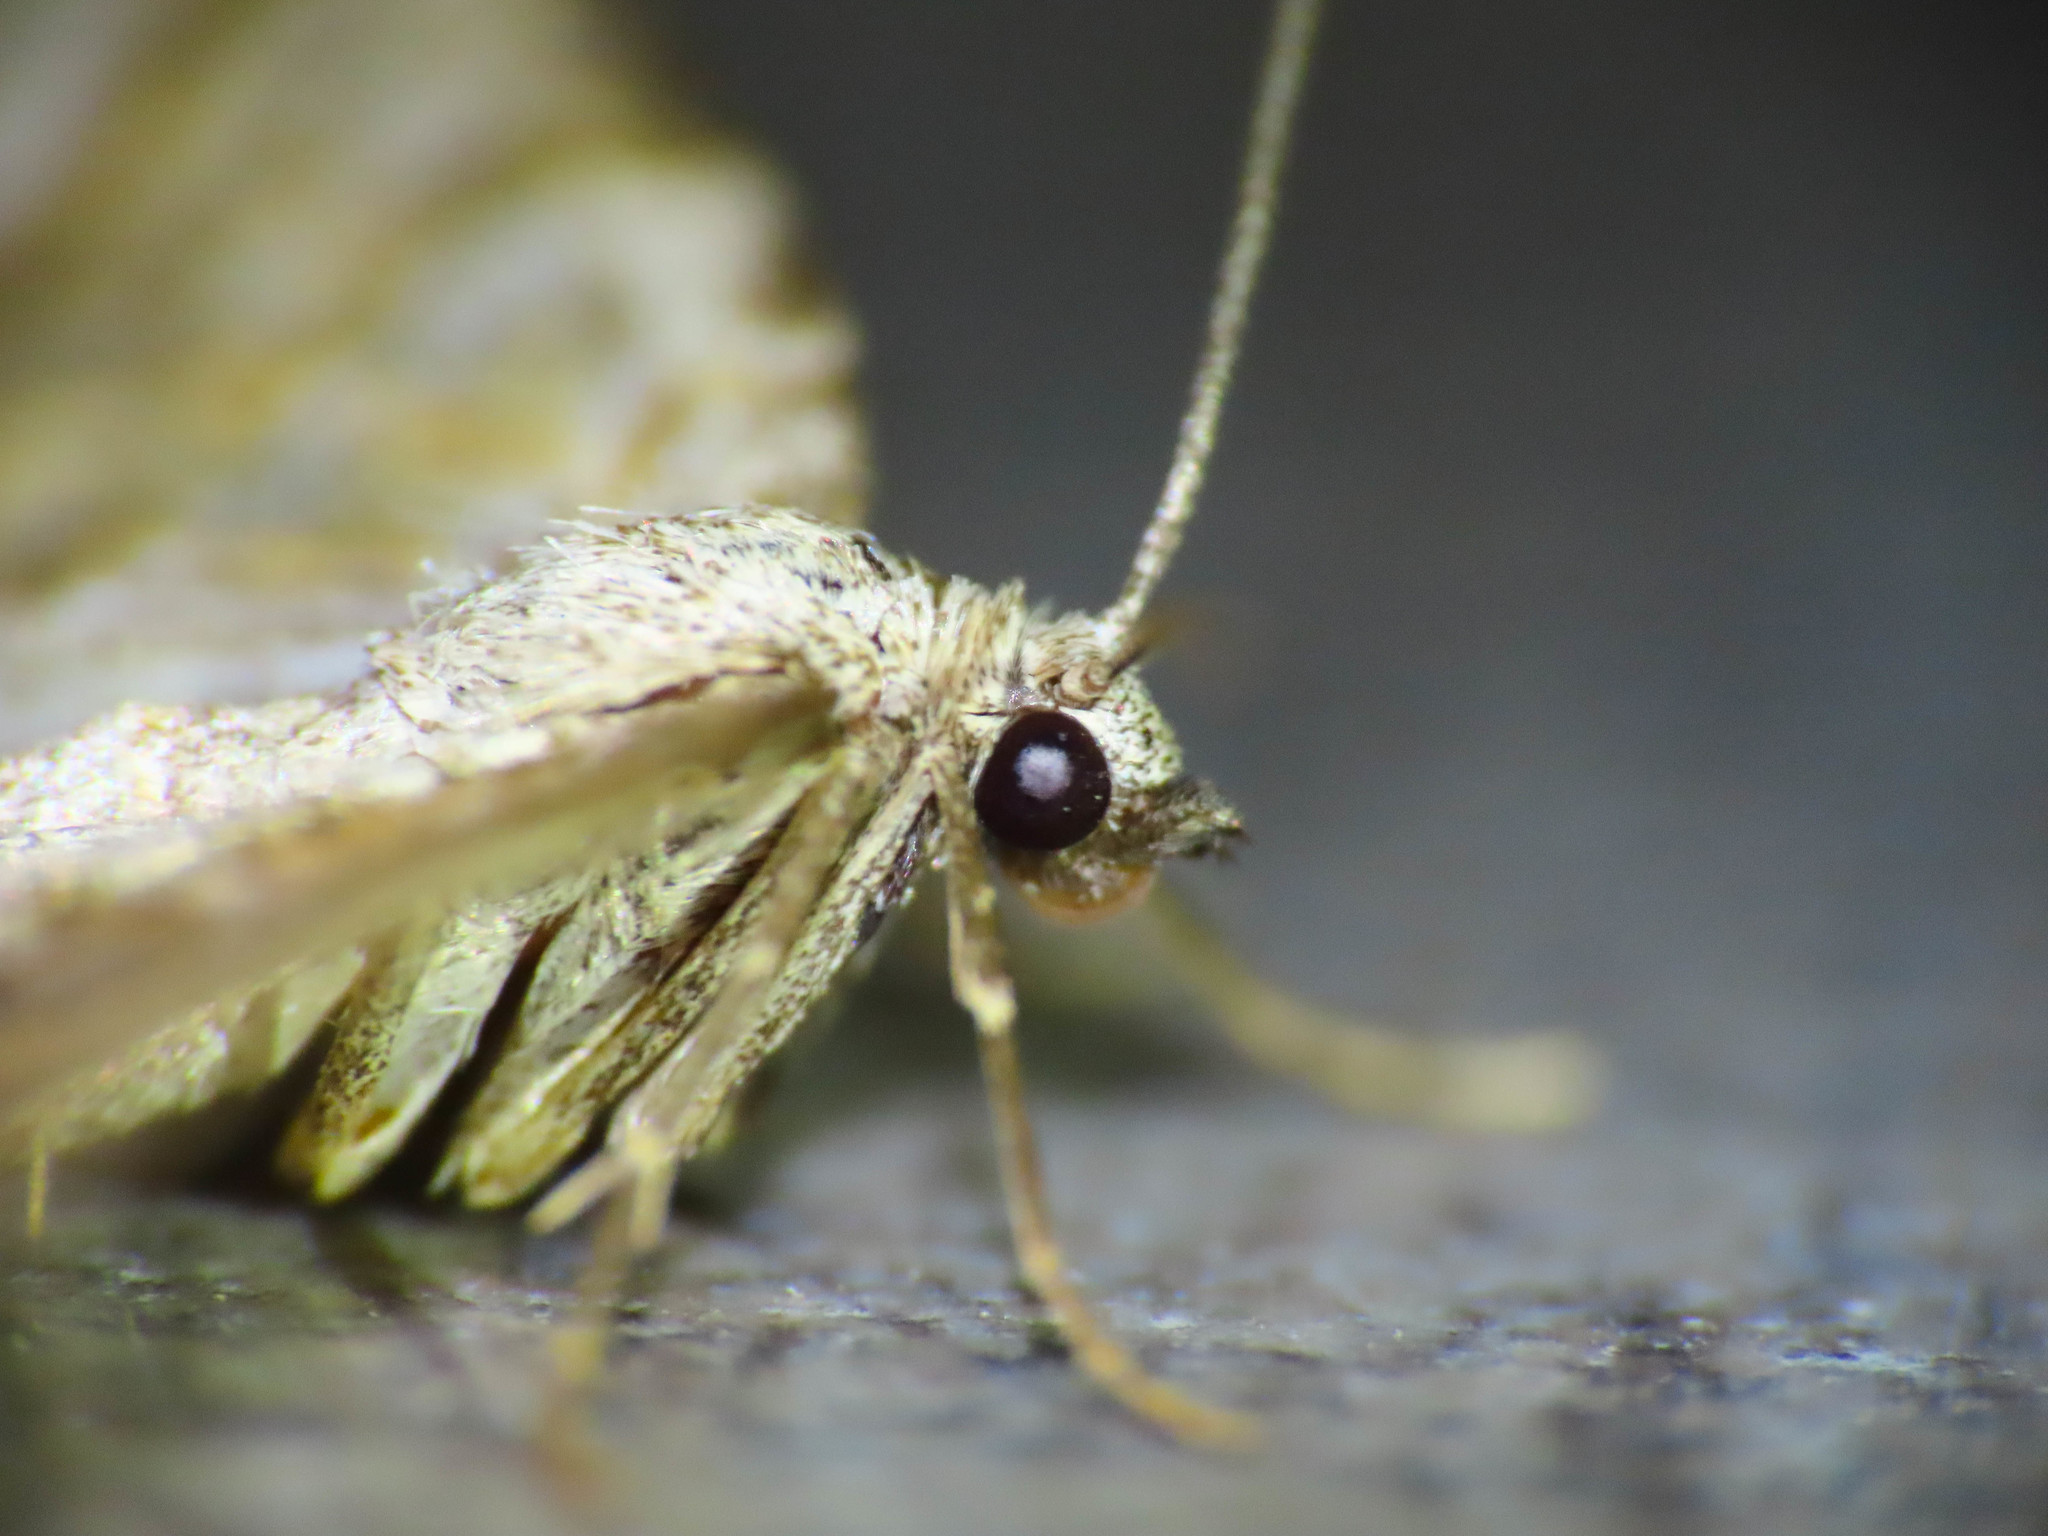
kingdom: Animalia
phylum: Arthropoda
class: Insecta
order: Lepidoptera
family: Geometridae
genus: Nebula
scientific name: Nebula tophaceata
